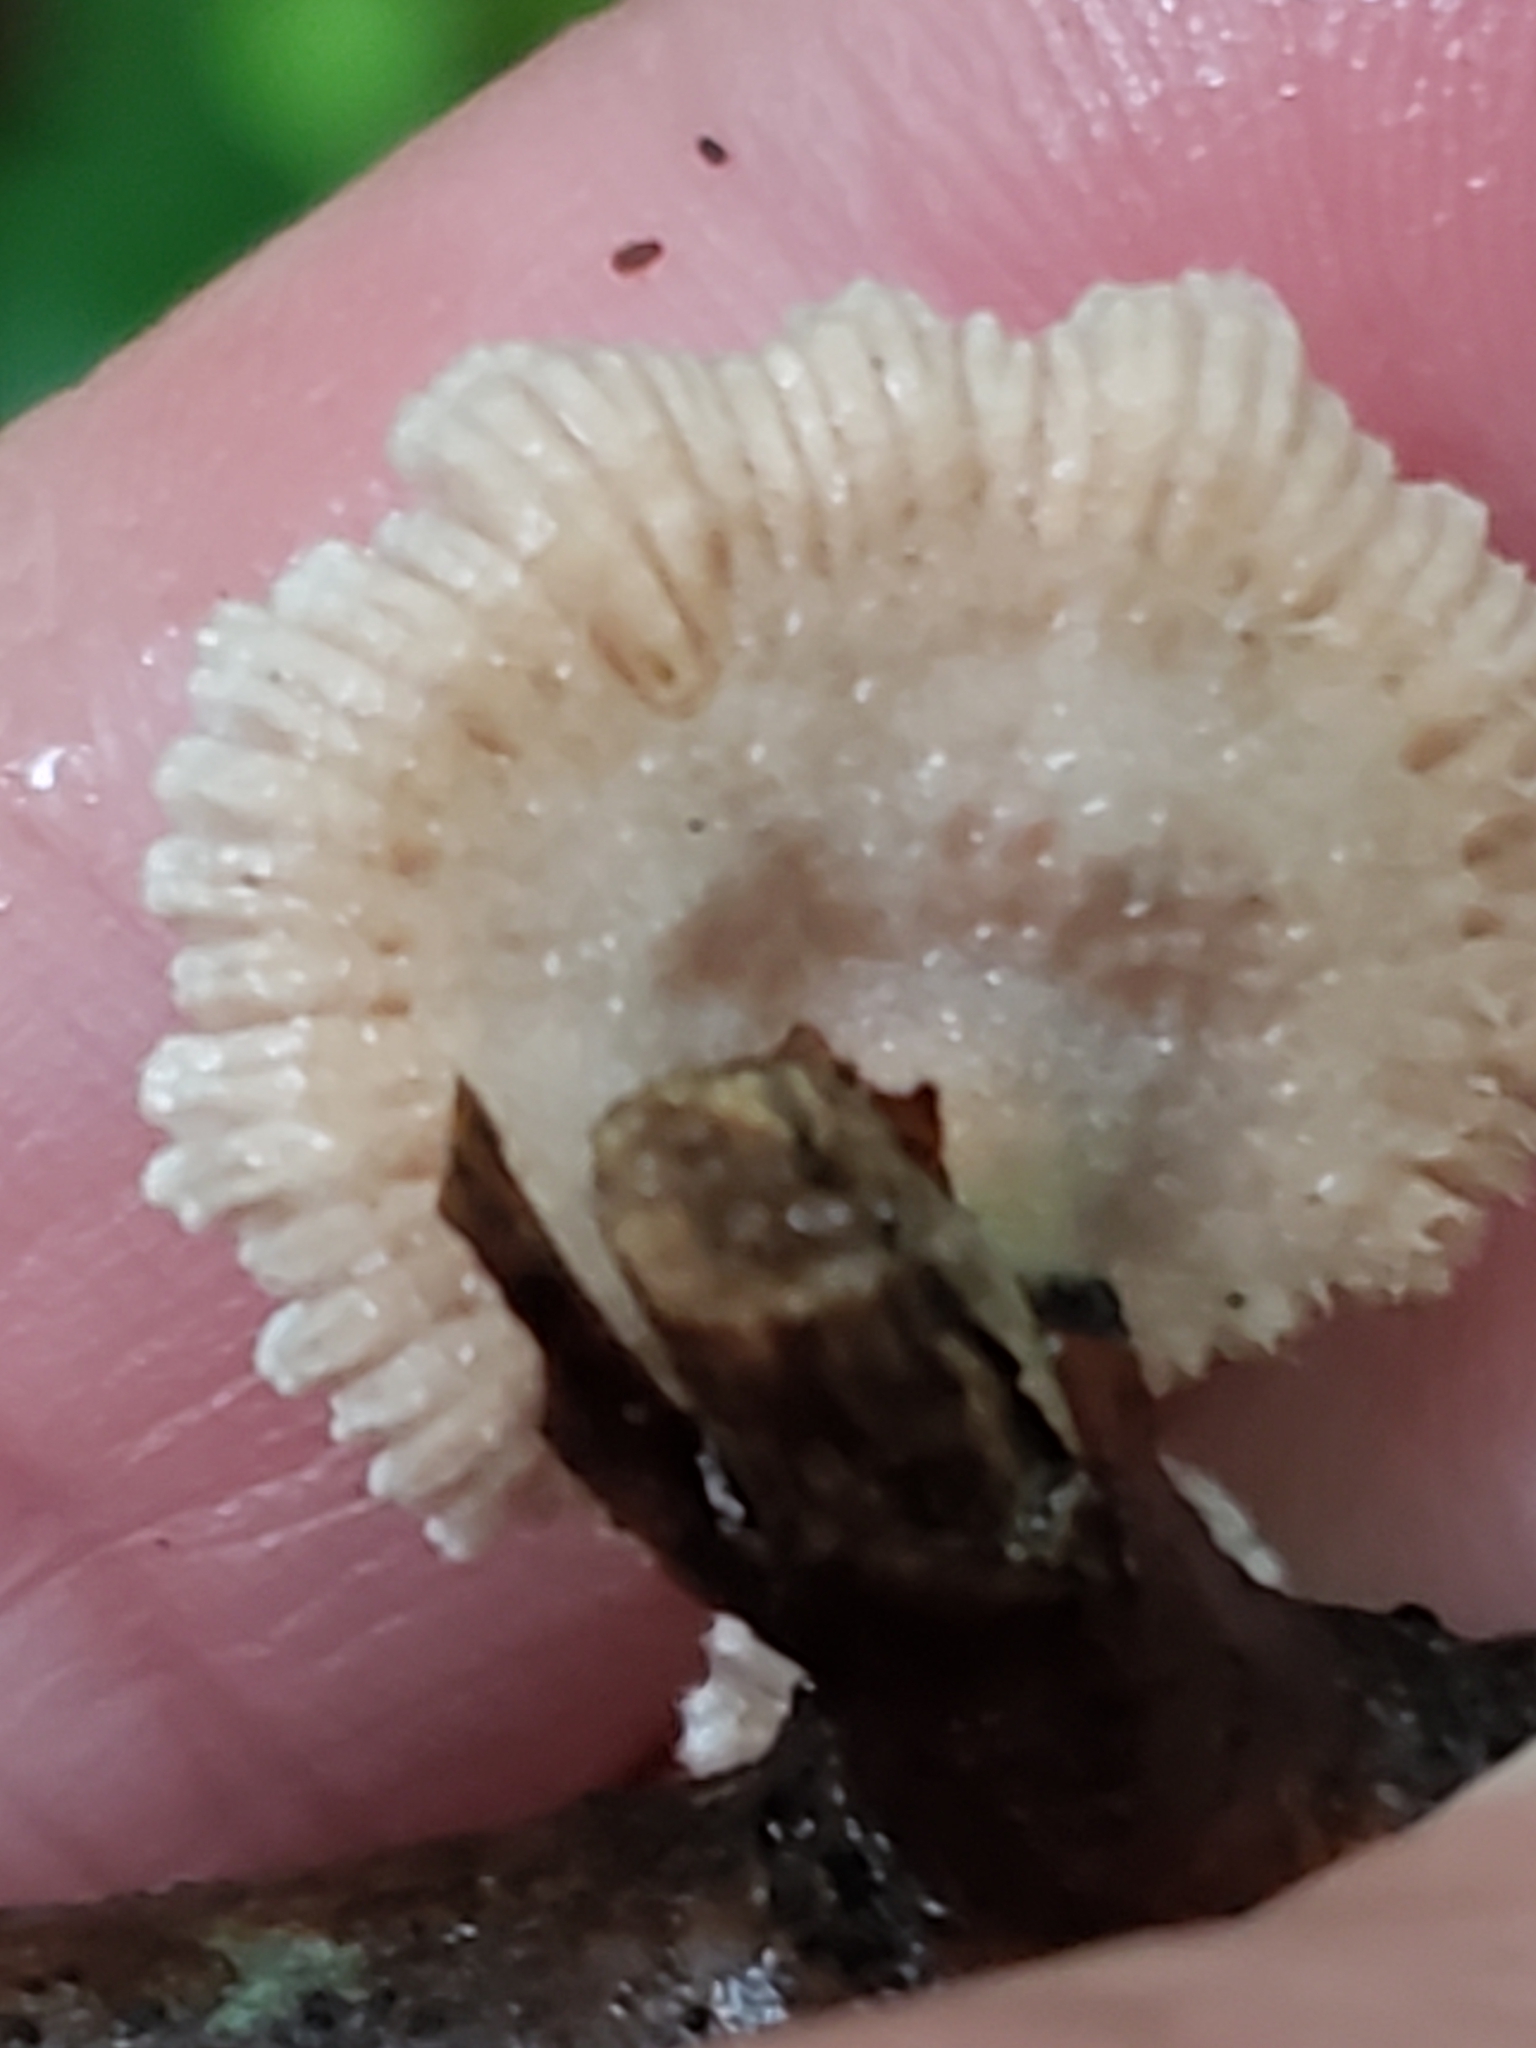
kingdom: Fungi
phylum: Basidiomycota
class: Agaricomycetes
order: Agaricales
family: Schizophyllaceae
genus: Schizophyllum
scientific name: Schizophyllum commune
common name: Common porecrust
